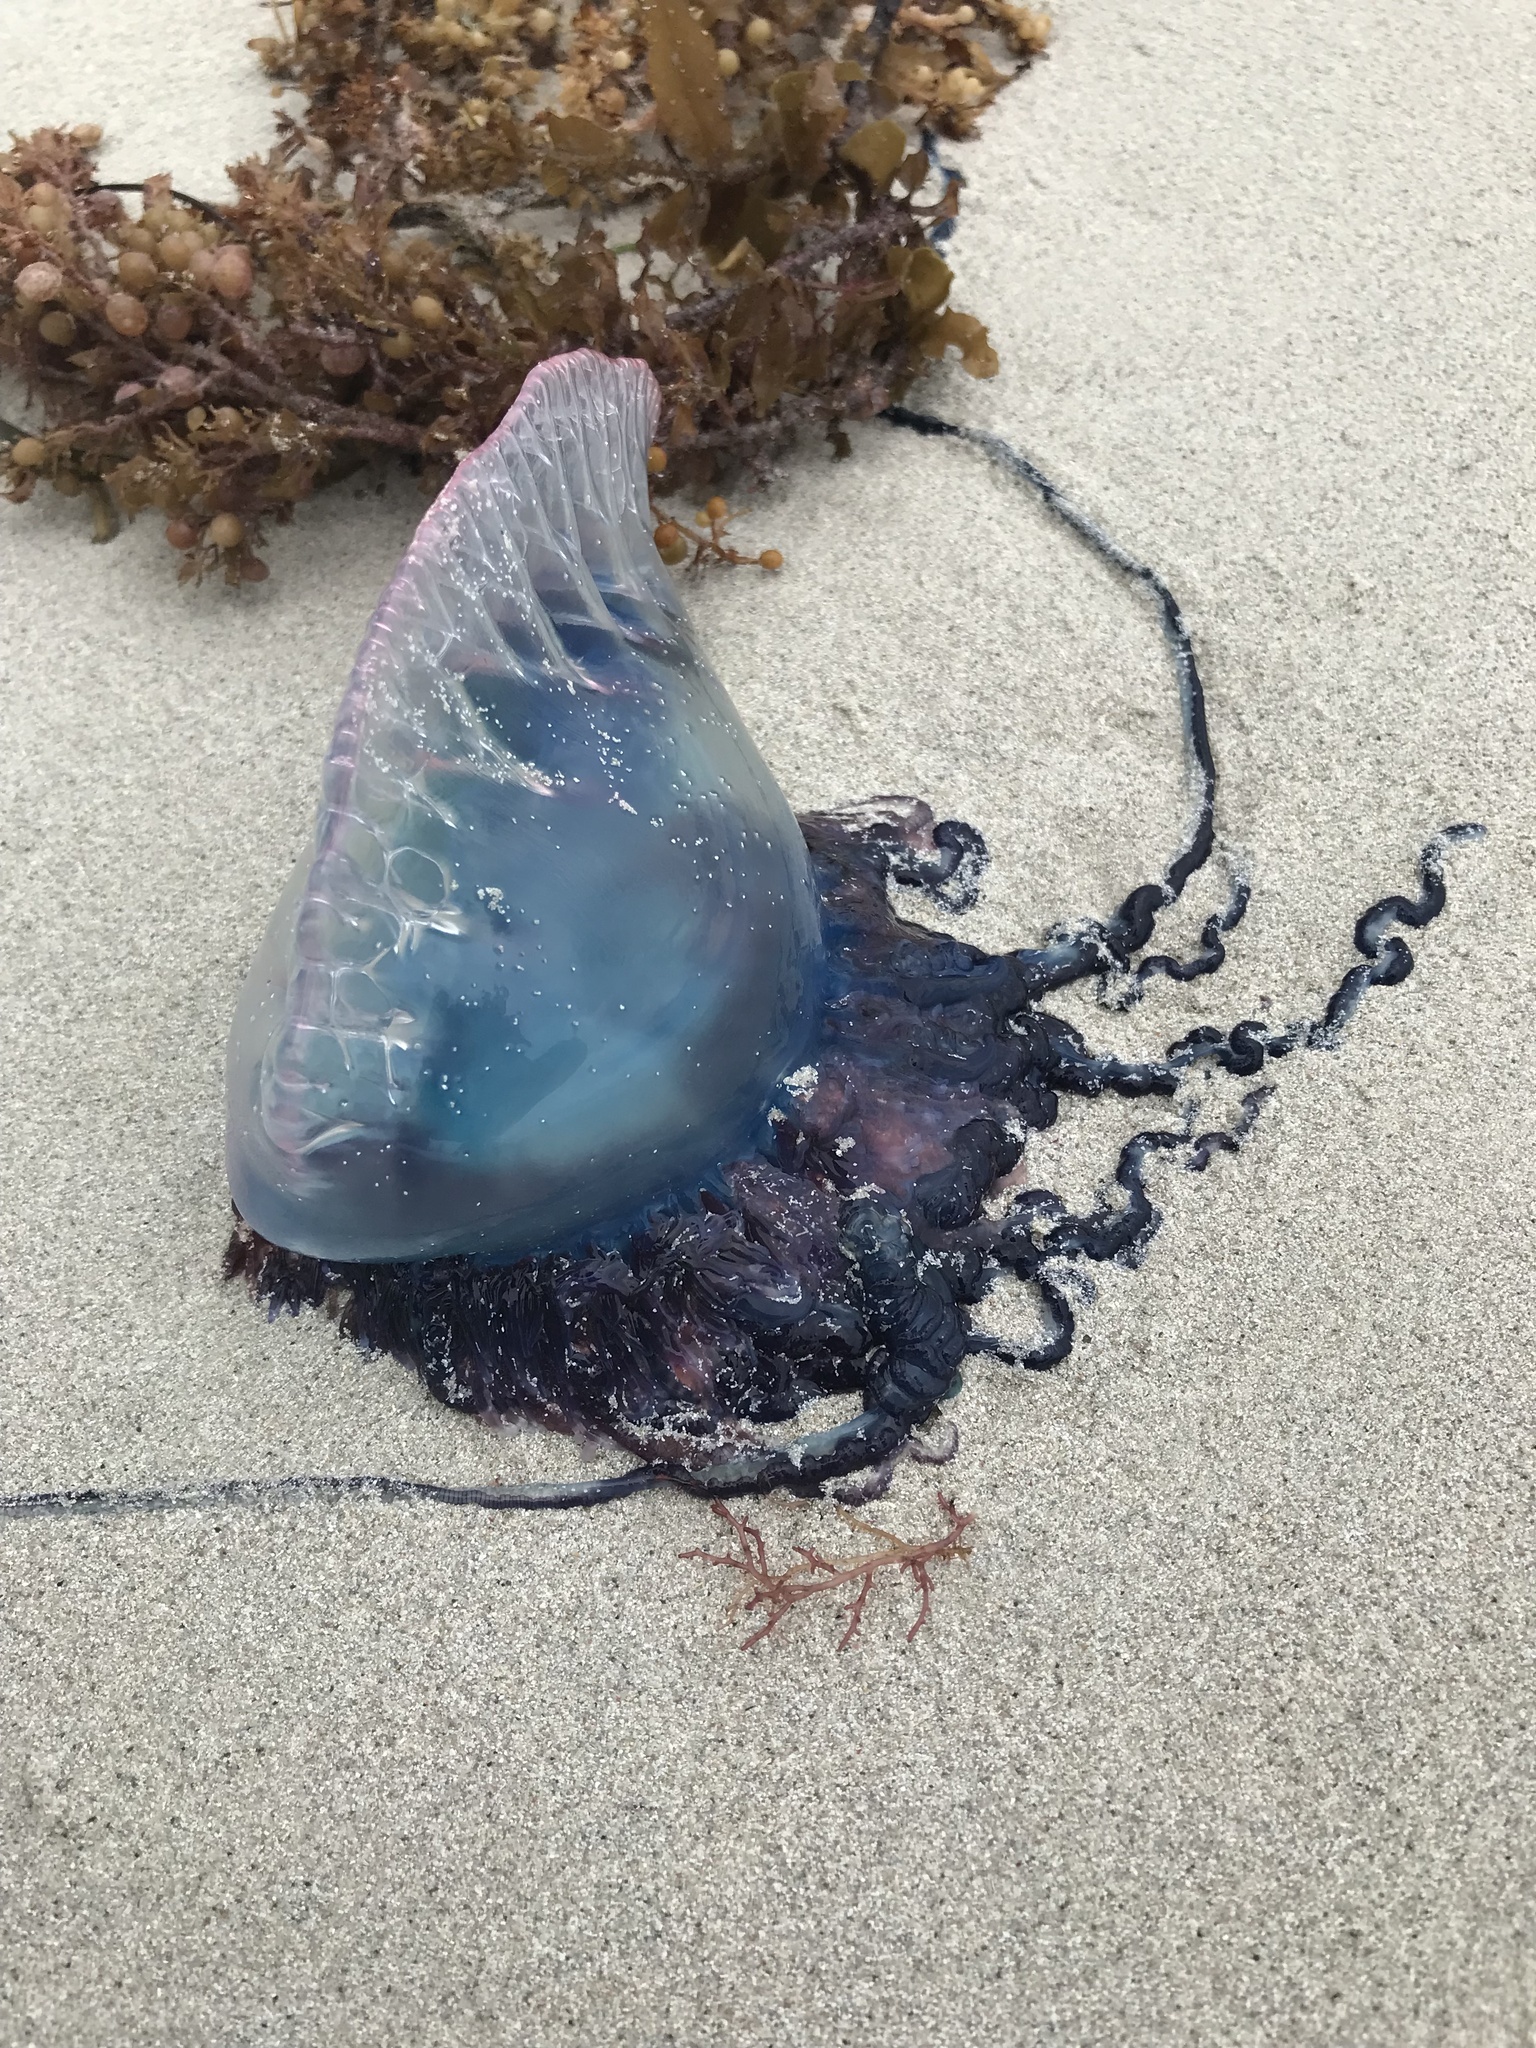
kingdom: Animalia
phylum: Cnidaria
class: Hydrozoa
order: Siphonophorae
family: Physaliidae
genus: Physalia
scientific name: Physalia physalis
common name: Portuguese man-of-war
